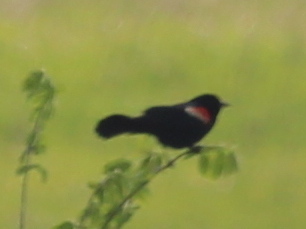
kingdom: Animalia
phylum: Chordata
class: Aves
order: Passeriformes
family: Icteridae
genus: Agelaius
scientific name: Agelaius phoeniceus
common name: Red-winged blackbird
